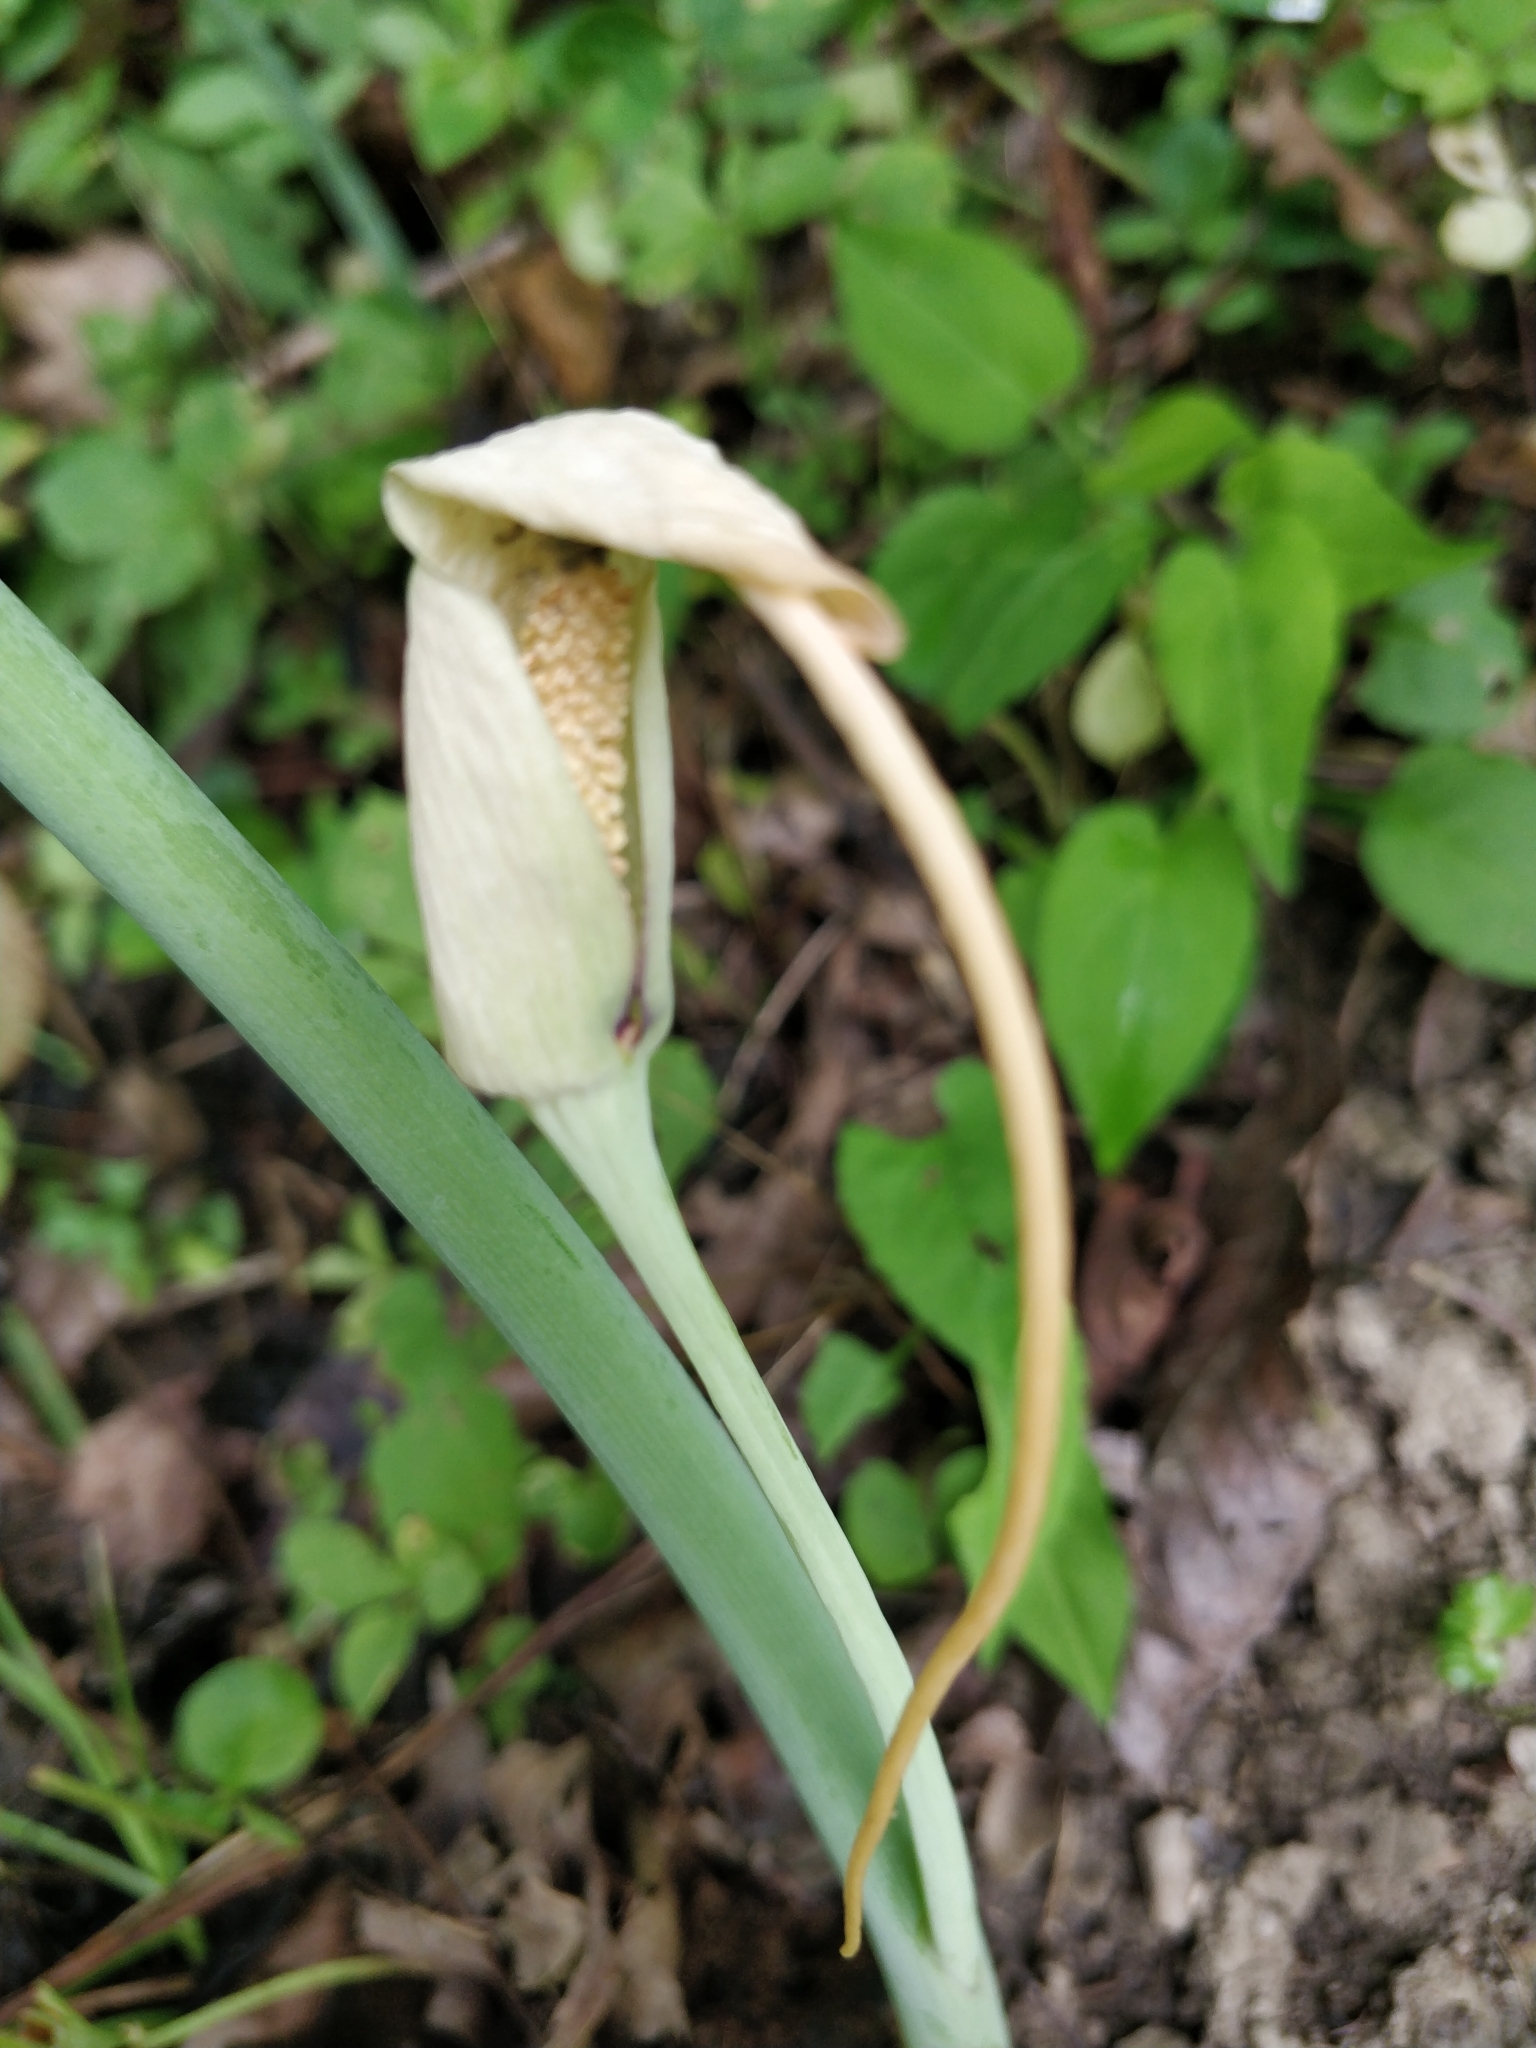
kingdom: Plantae
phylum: Tracheophyta
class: Liliopsida
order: Alismatales
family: Araceae
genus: Arisaema
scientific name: Arisaema dracontium
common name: Dragon-arum
